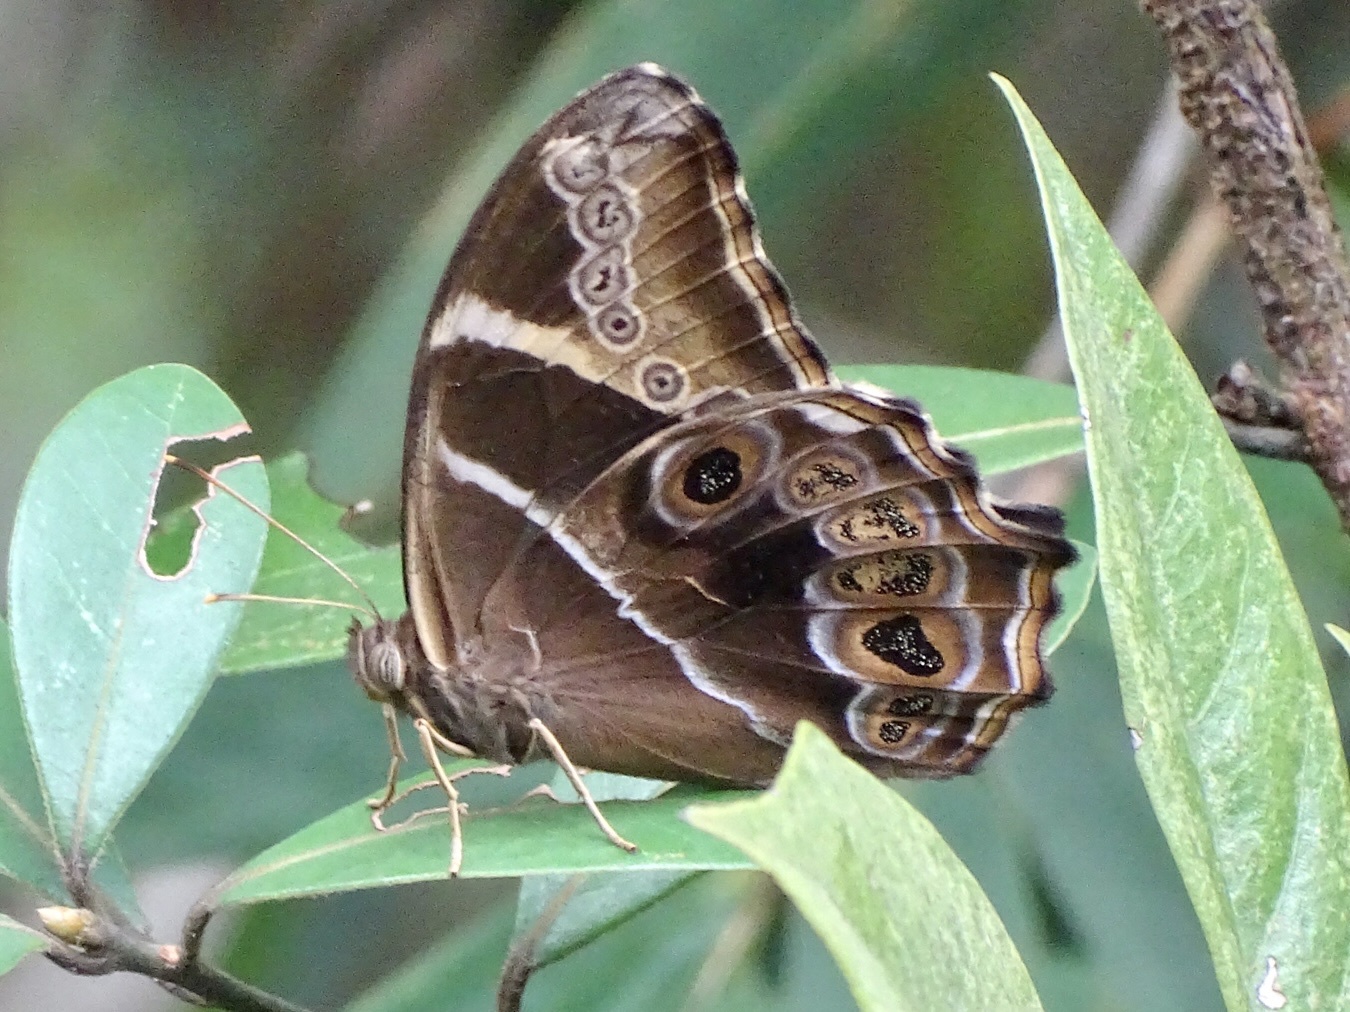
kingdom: Animalia
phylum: Arthropoda
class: Insecta
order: Lepidoptera
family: Nymphalidae
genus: Lethe
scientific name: Lethe europa
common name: Bamboo treebrown
